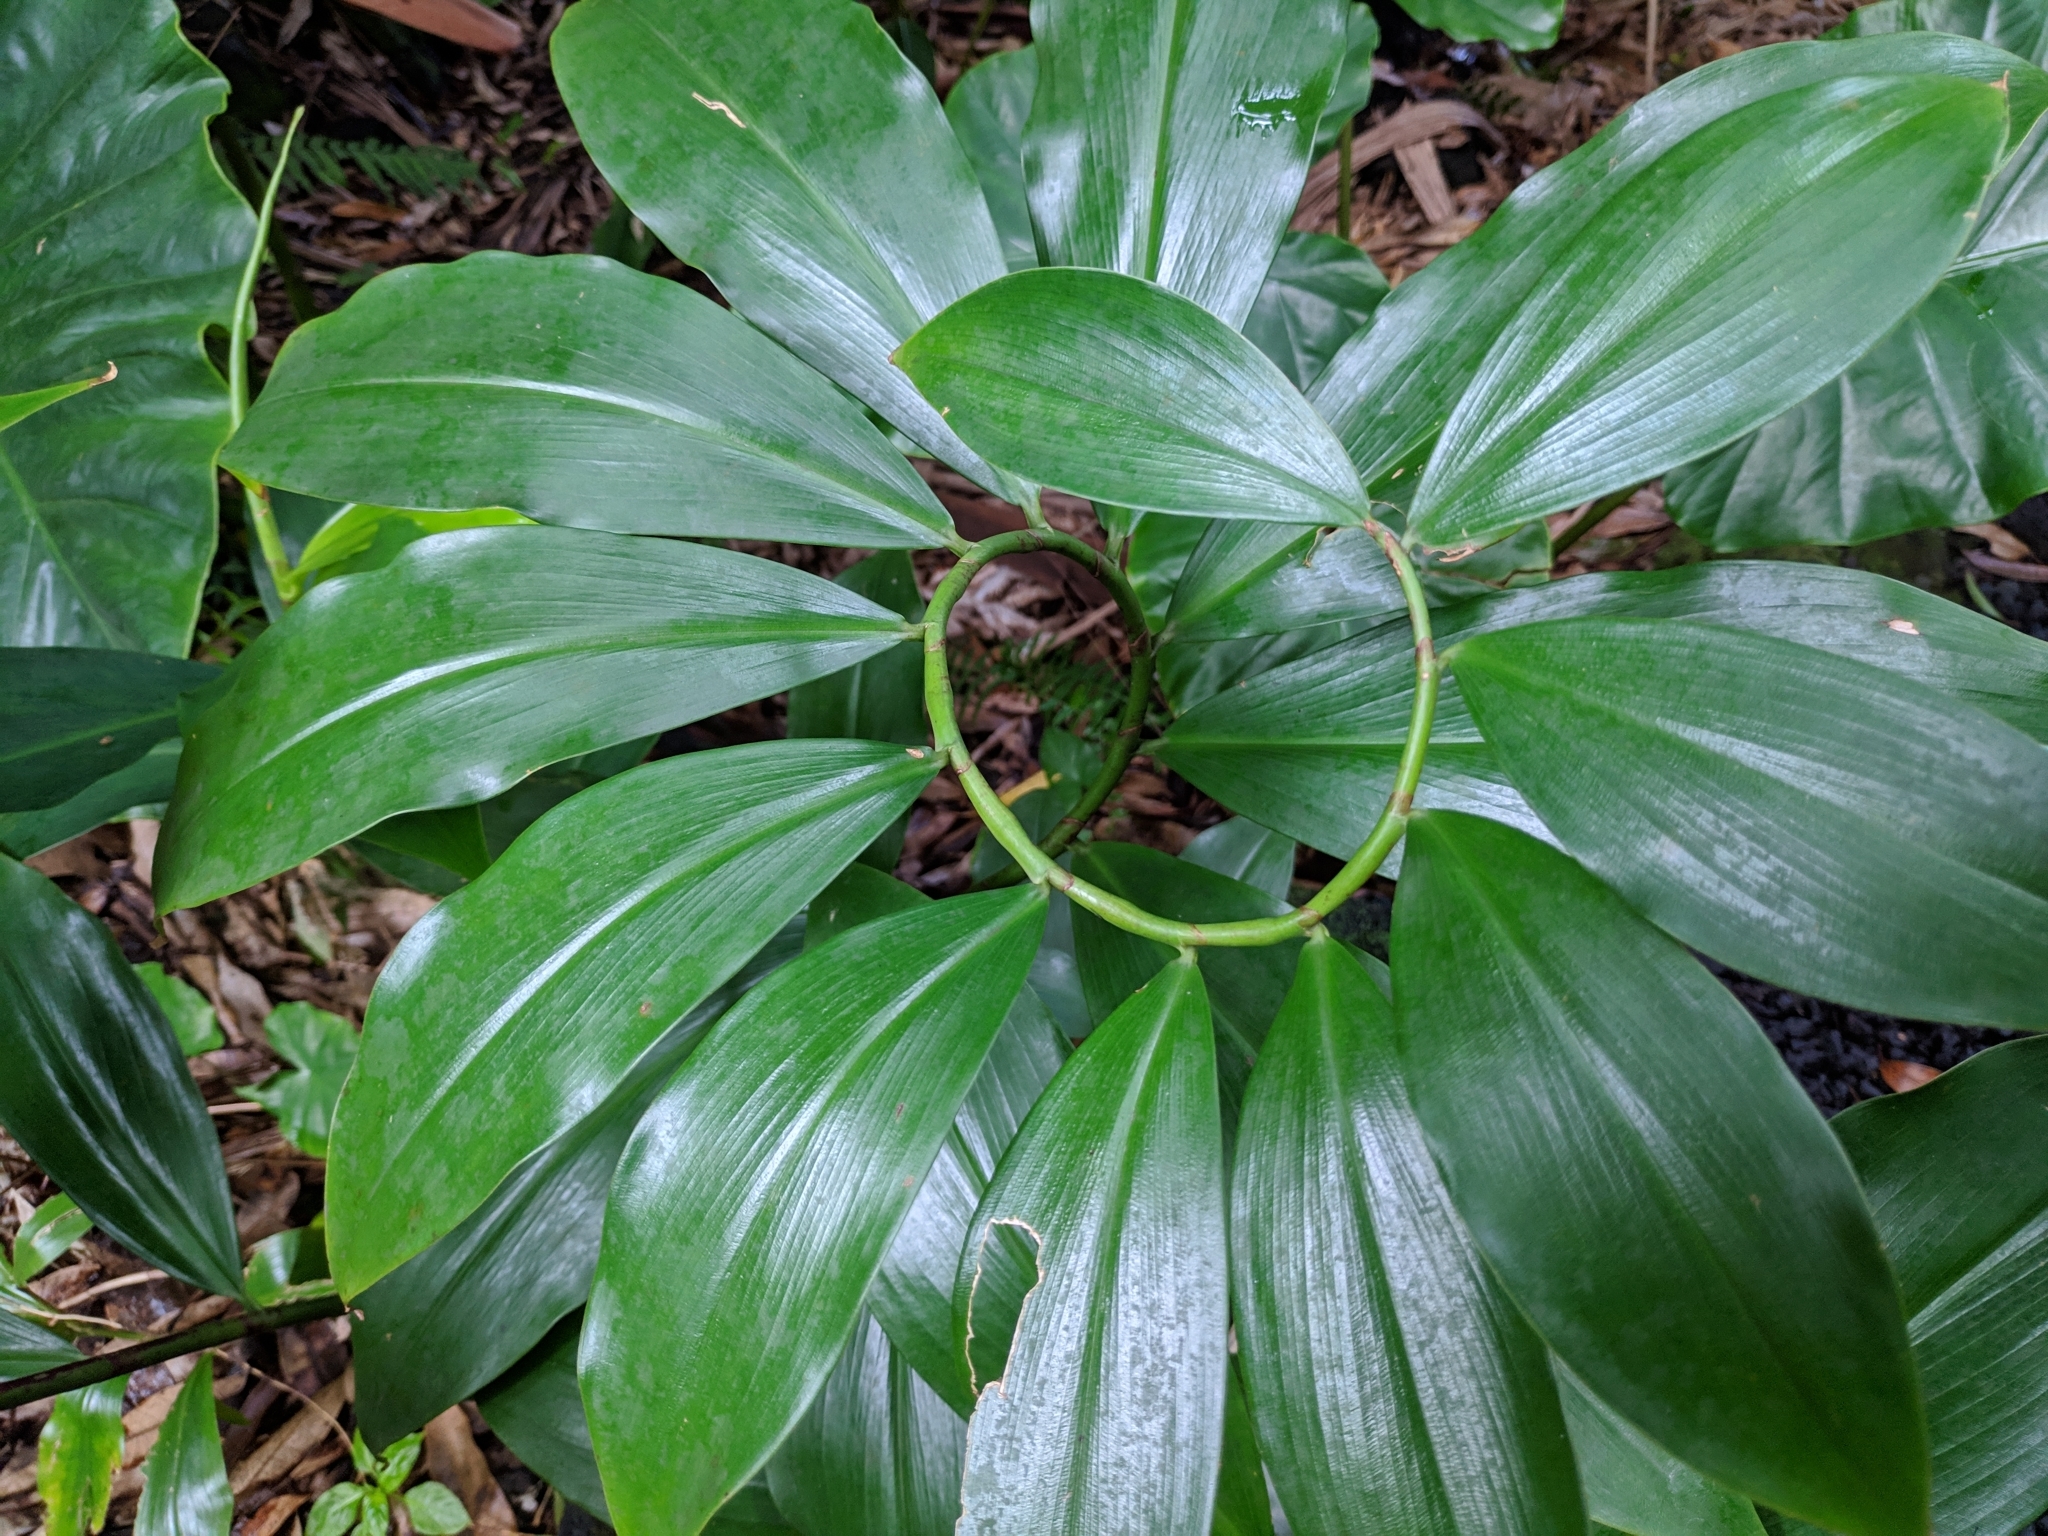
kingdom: Plantae
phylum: Tracheophyta
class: Liliopsida
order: Zingiberales
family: Costaceae
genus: Hellenia
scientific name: Hellenia speciosa
